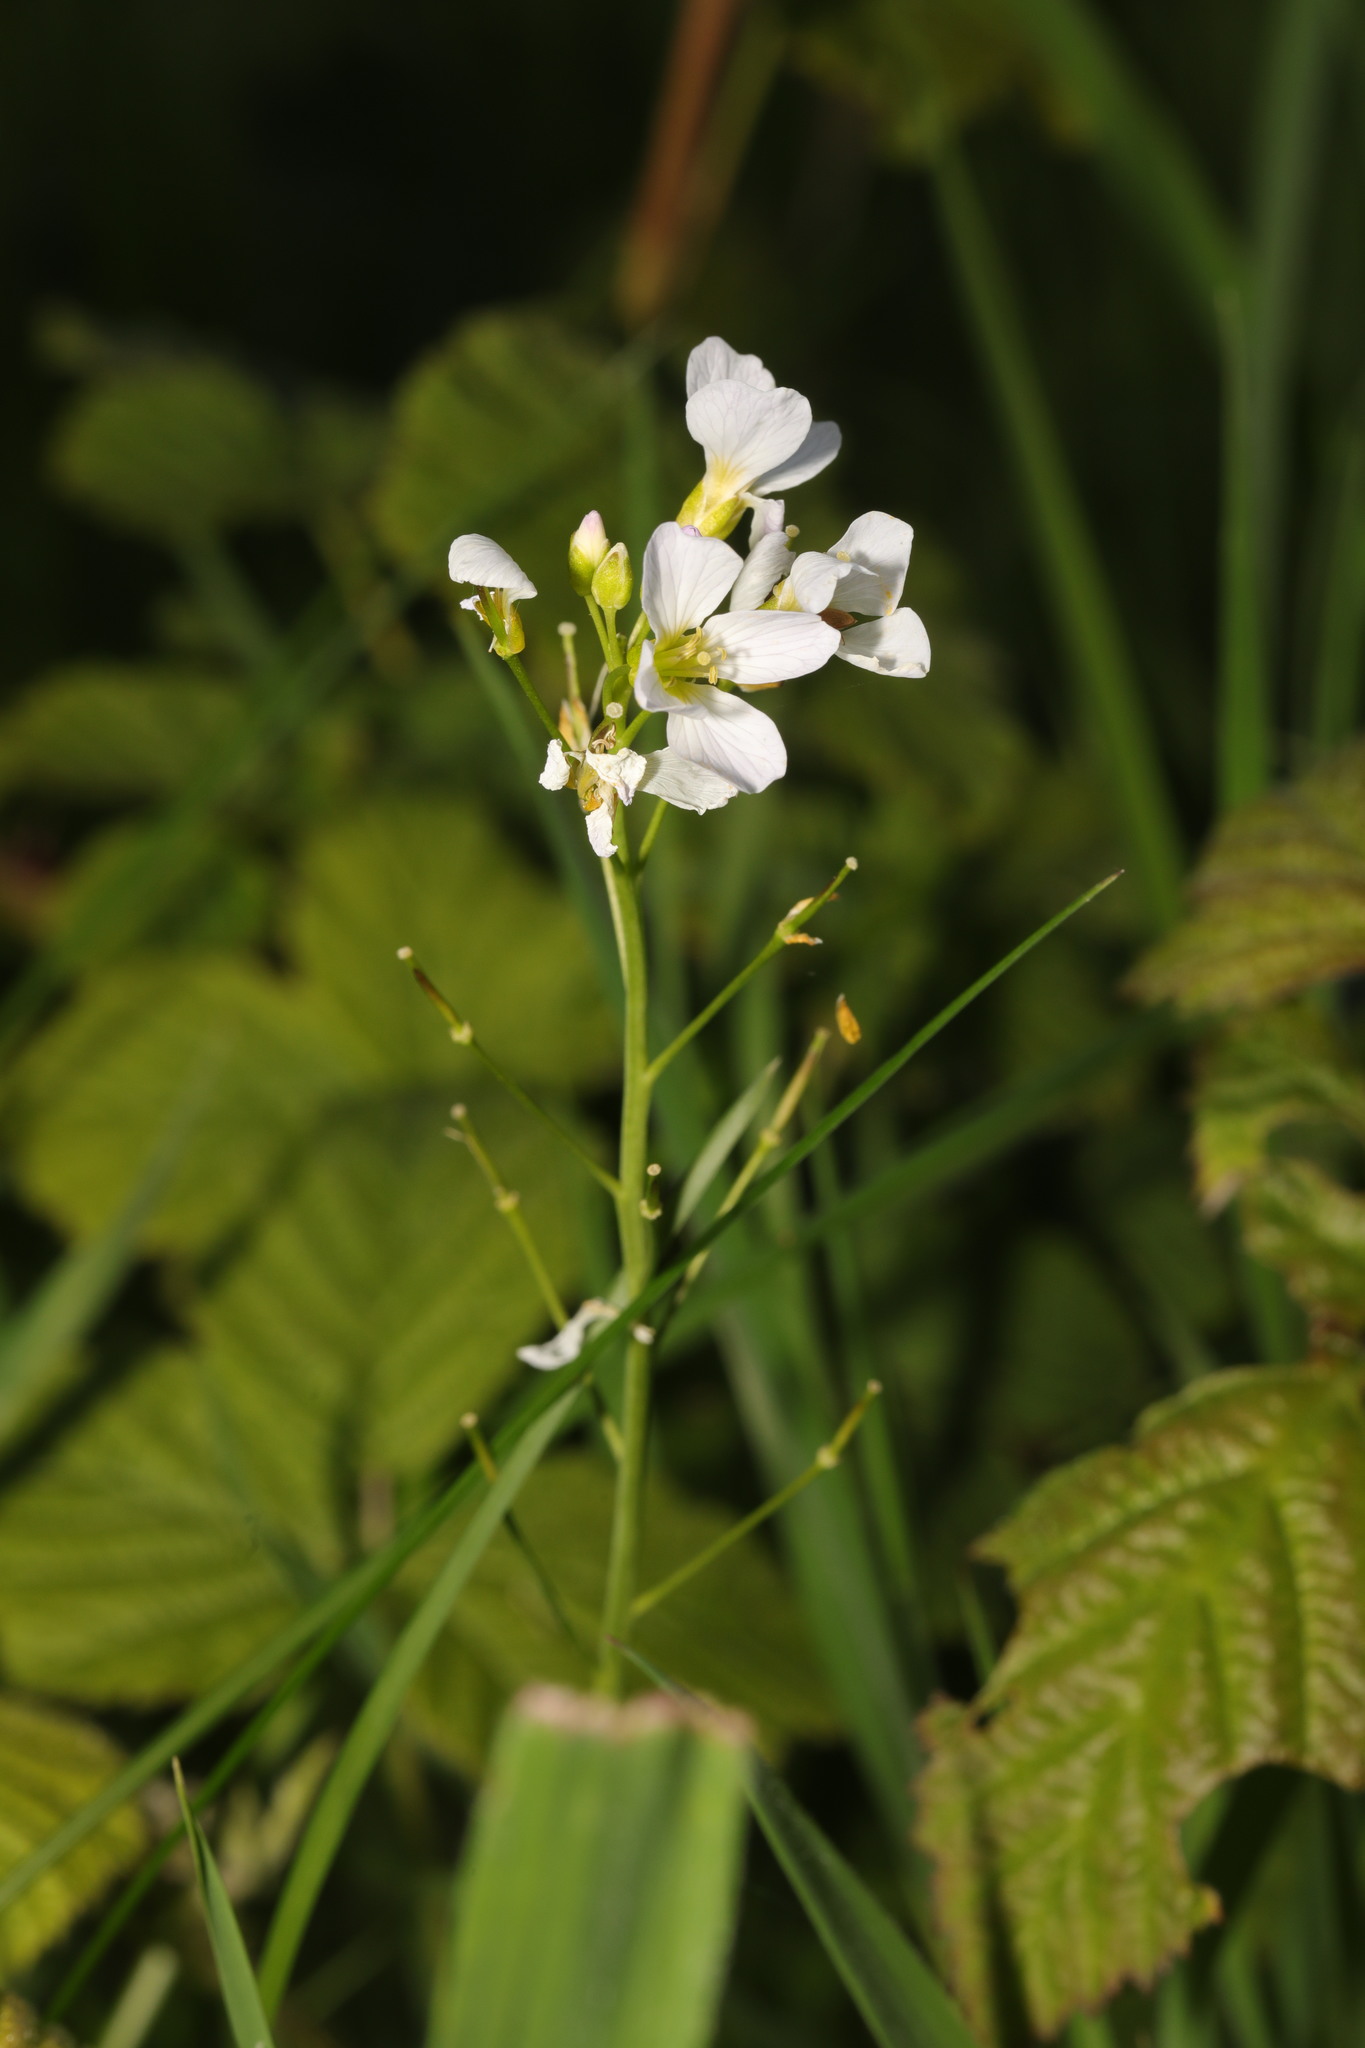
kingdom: Plantae
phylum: Tracheophyta
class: Magnoliopsida
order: Brassicales
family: Brassicaceae
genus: Cardamine
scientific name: Cardamine pratensis
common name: Cuckoo flower
